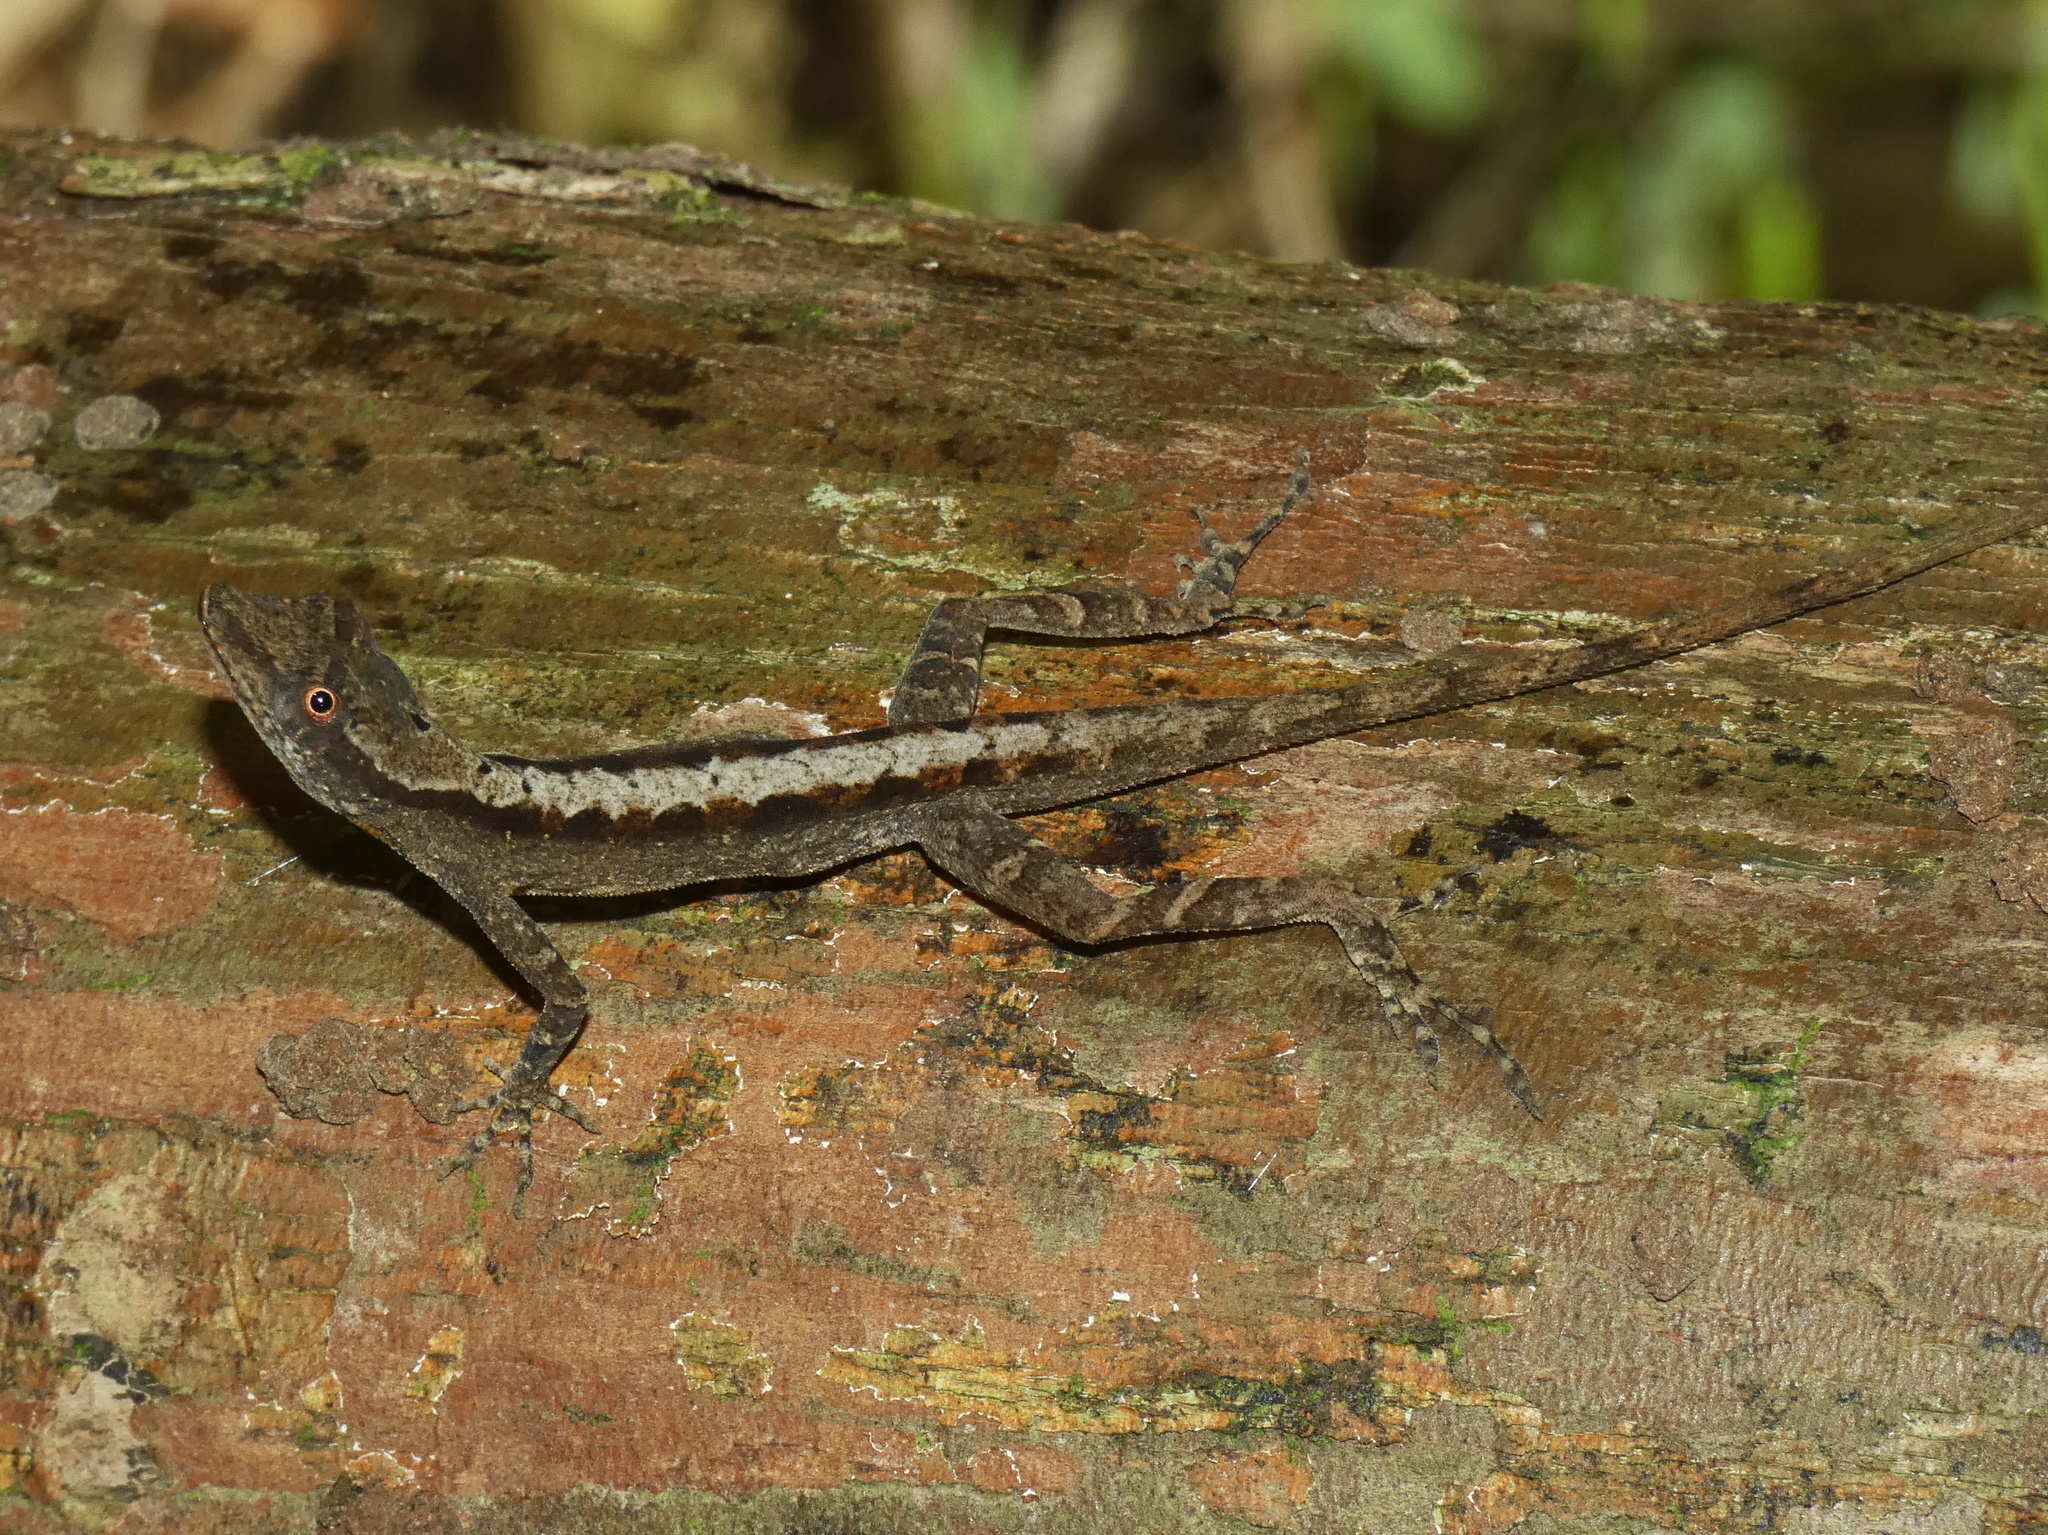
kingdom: Animalia
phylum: Chordata
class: Squamata
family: Dactyloidae
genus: Anolis
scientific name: Anolis gaigei
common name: Gaige’s anole
